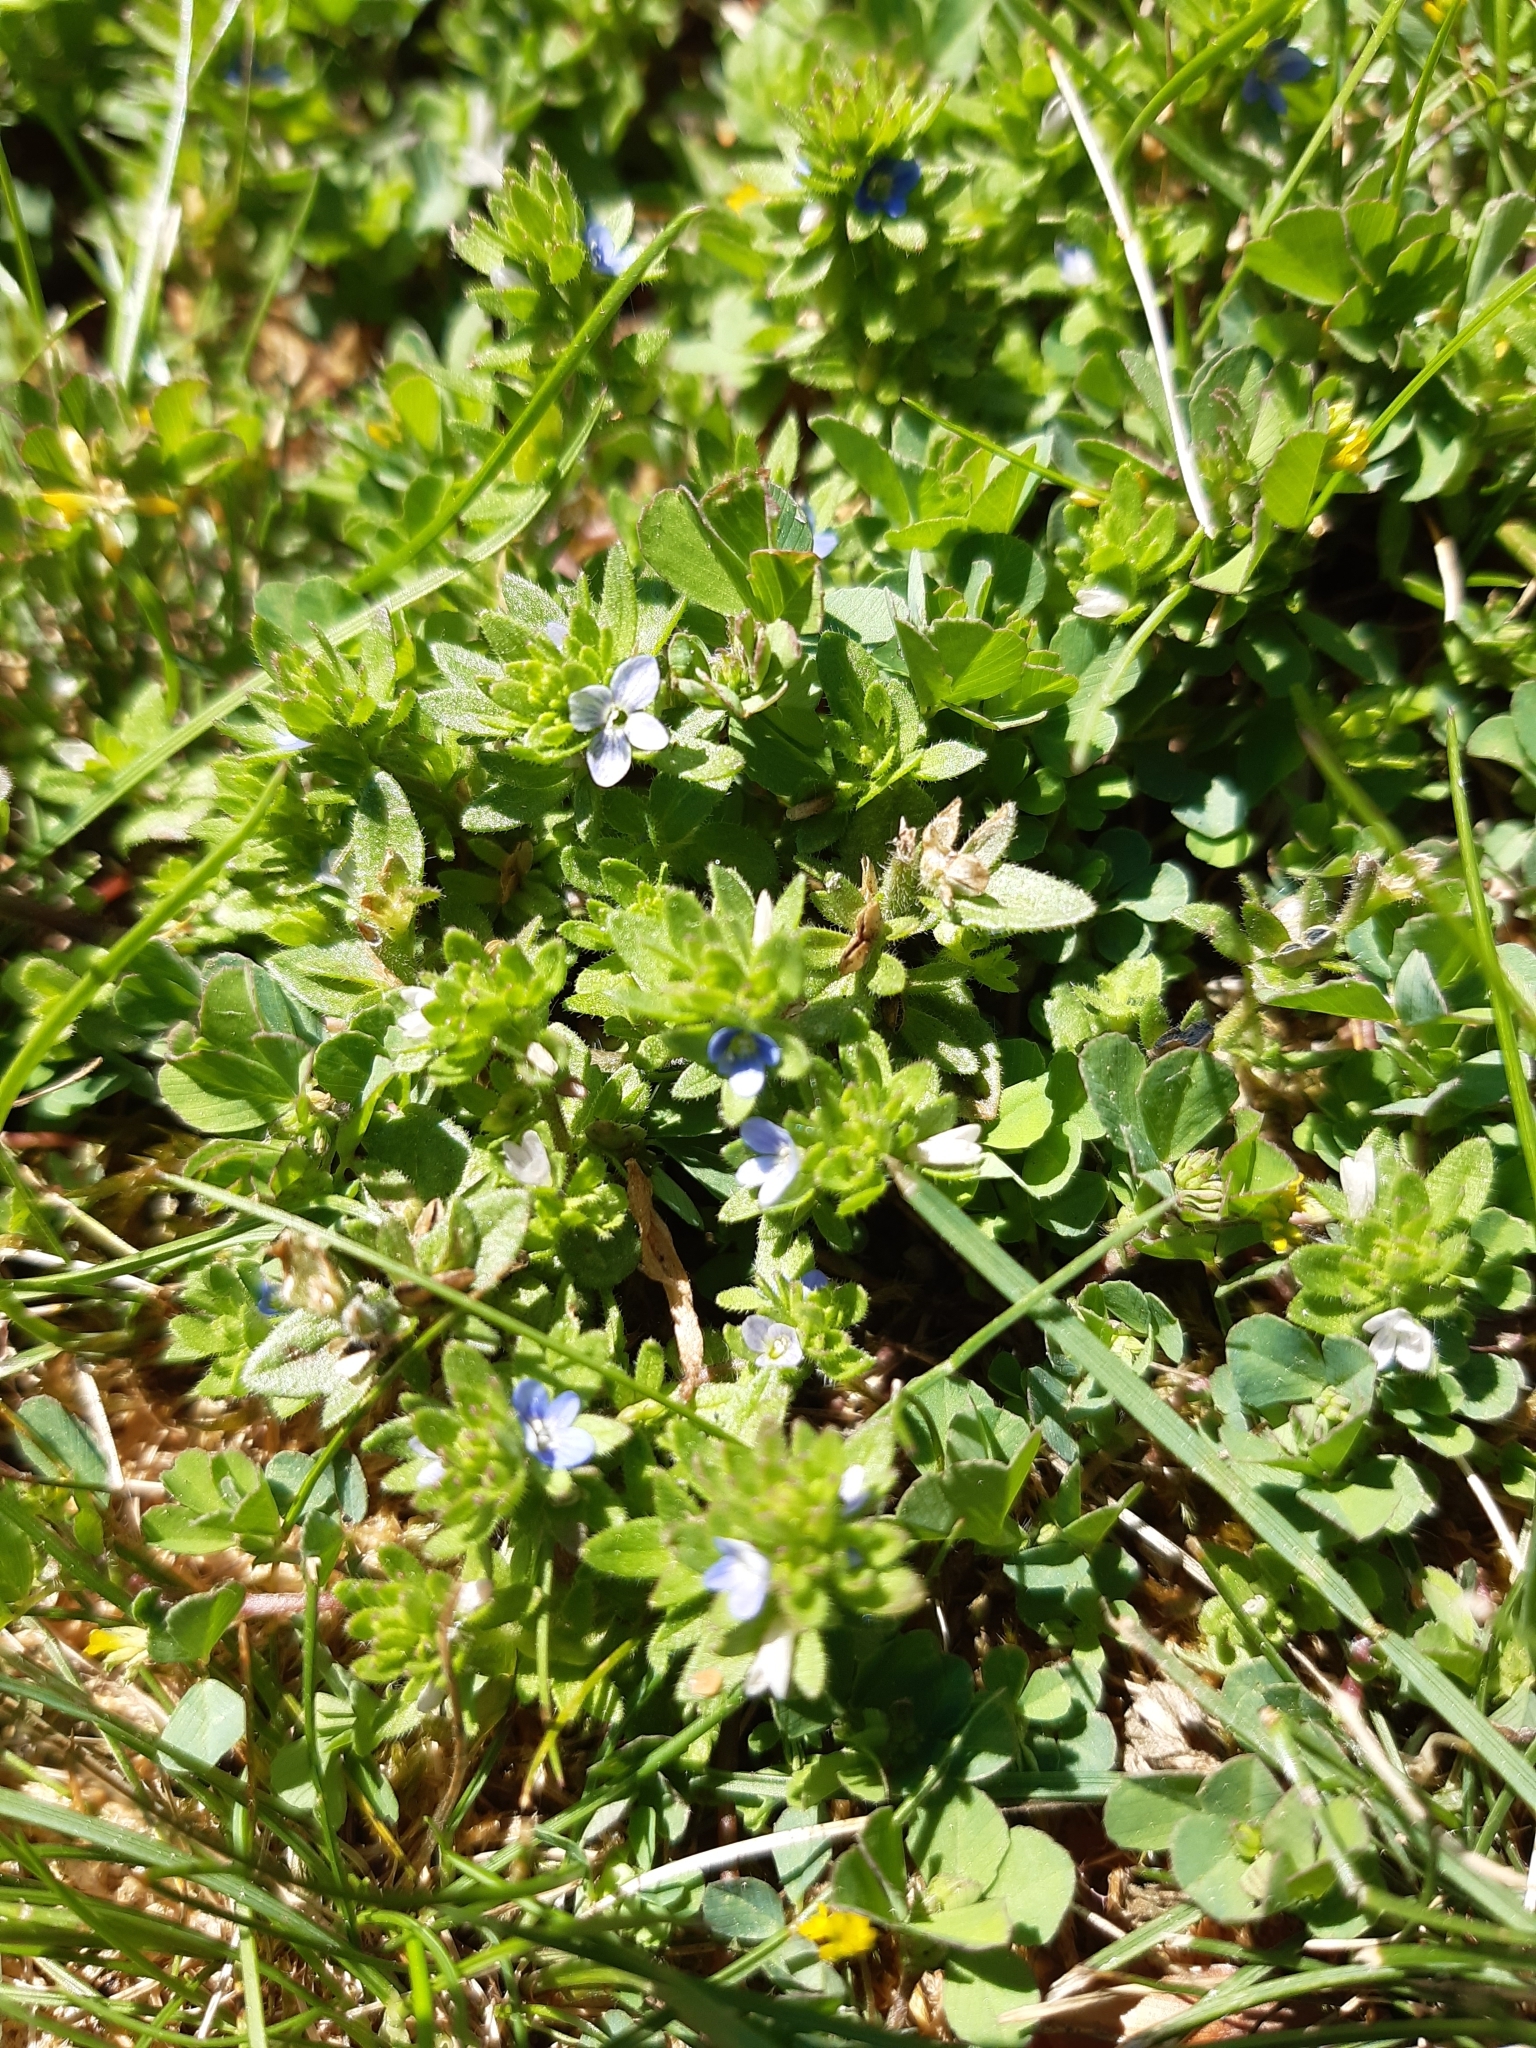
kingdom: Plantae
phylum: Tracheophyta
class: Magnoliopsida
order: Lamiales
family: Plantaginaceae
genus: Veronica
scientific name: Veronica arvensis
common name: Corn speedwell
